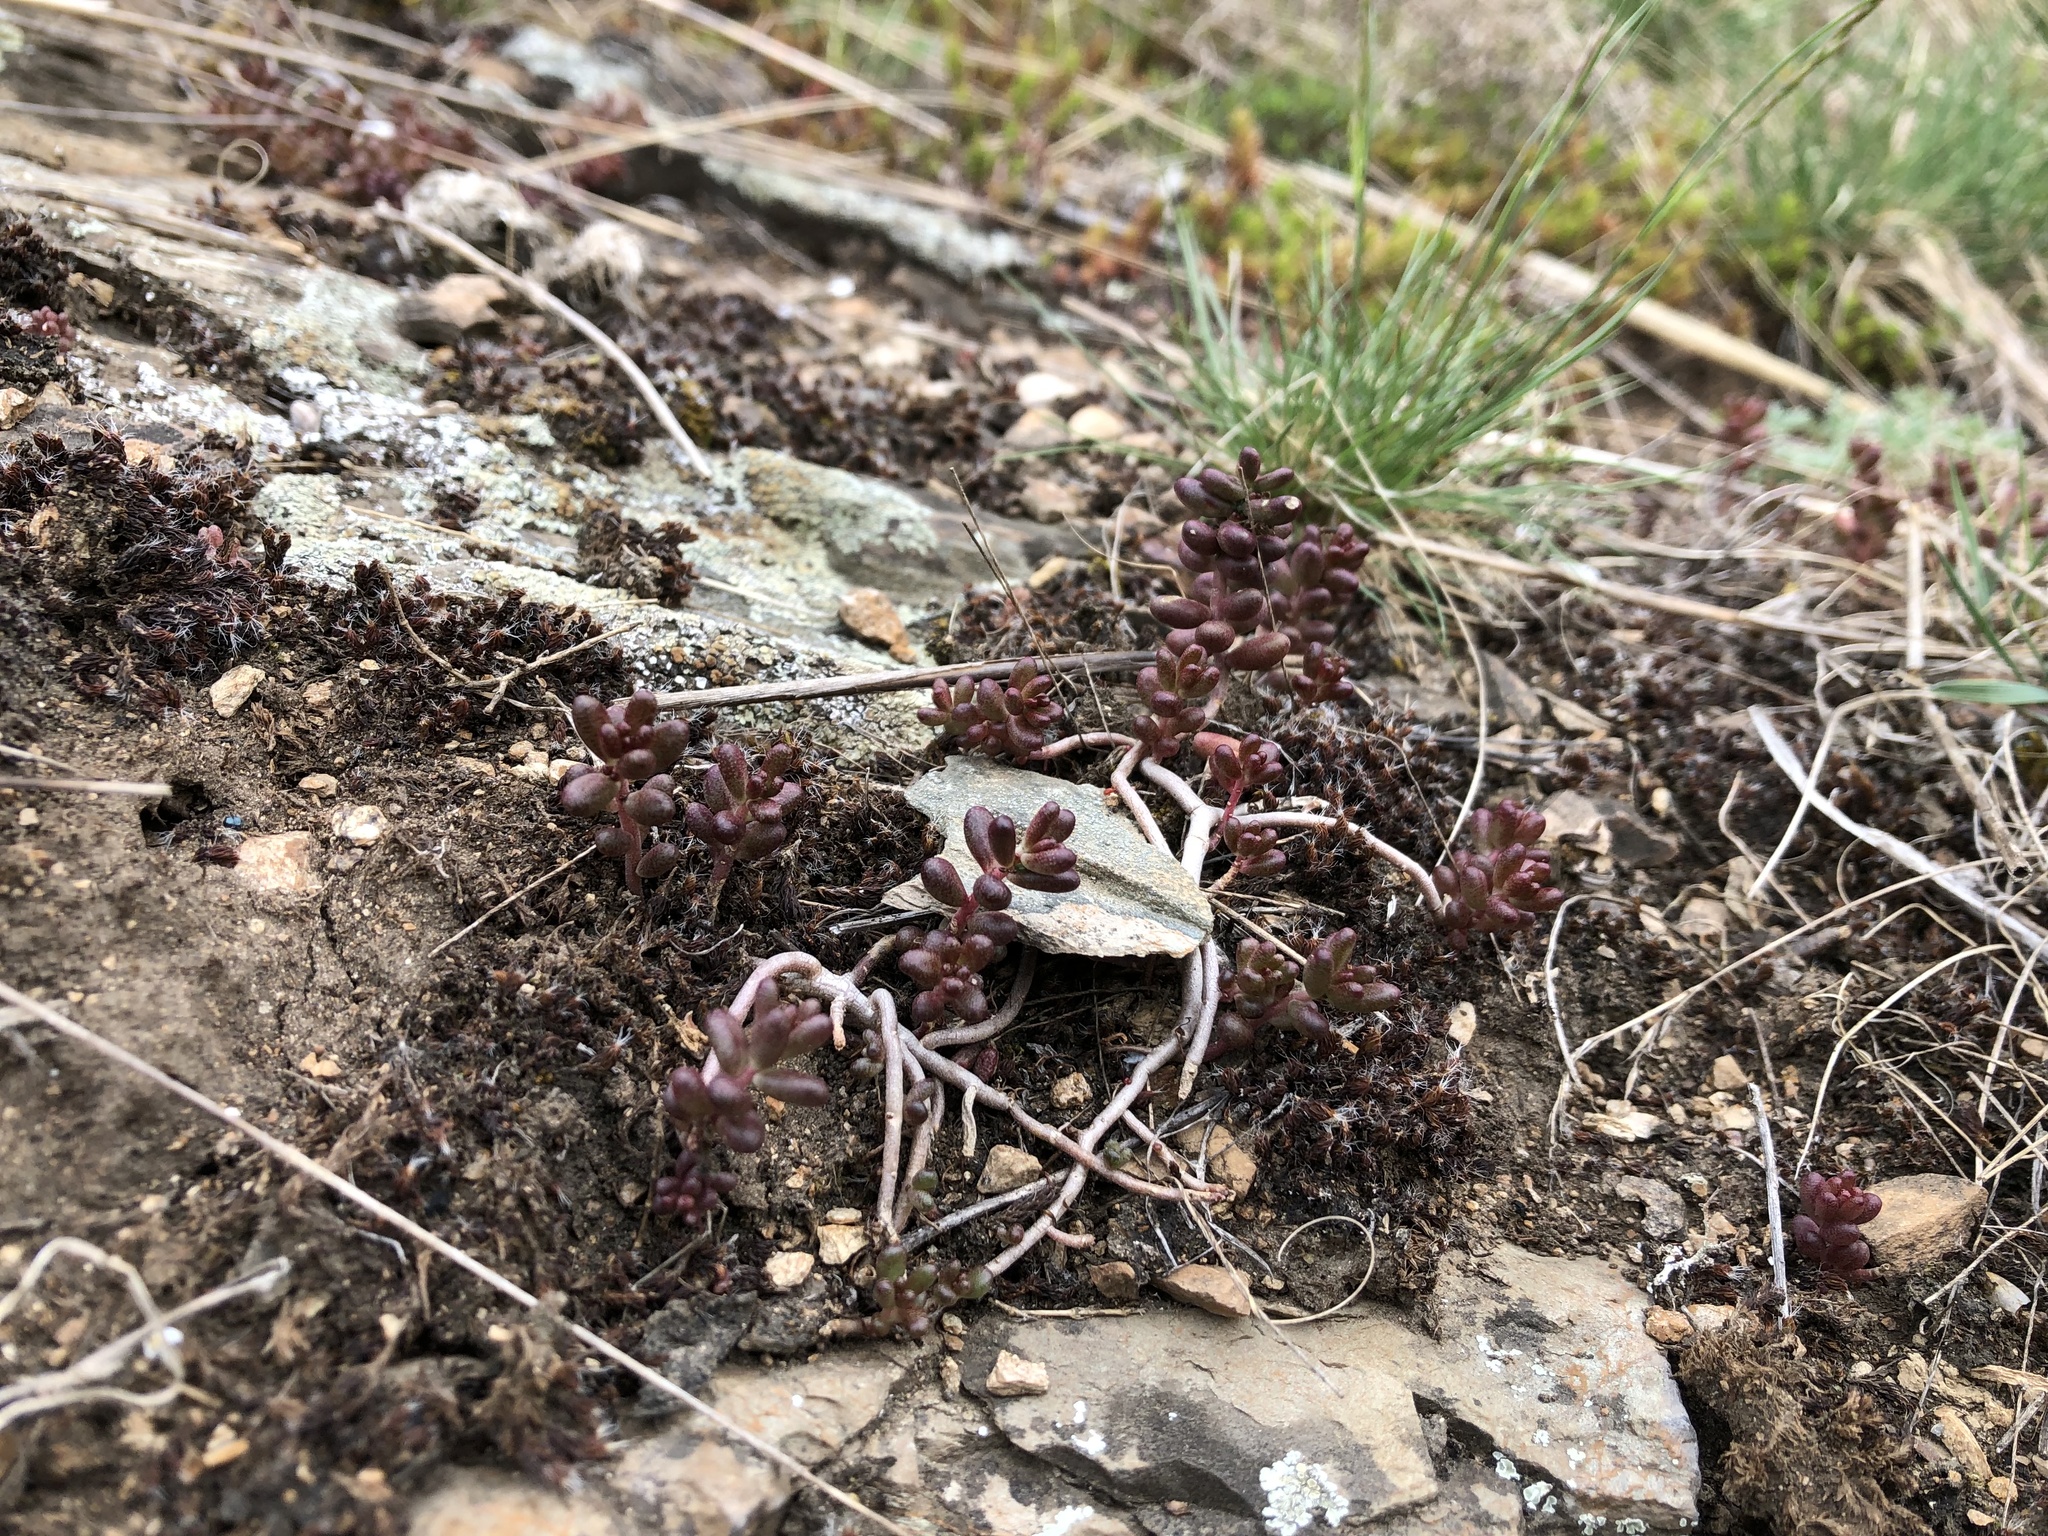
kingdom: Plantae
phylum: Tracheophyta
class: Magnoliopsida
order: Saxifragales
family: Crassulaceae
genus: Sedum
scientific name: Sedum album
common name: White stonecrop
